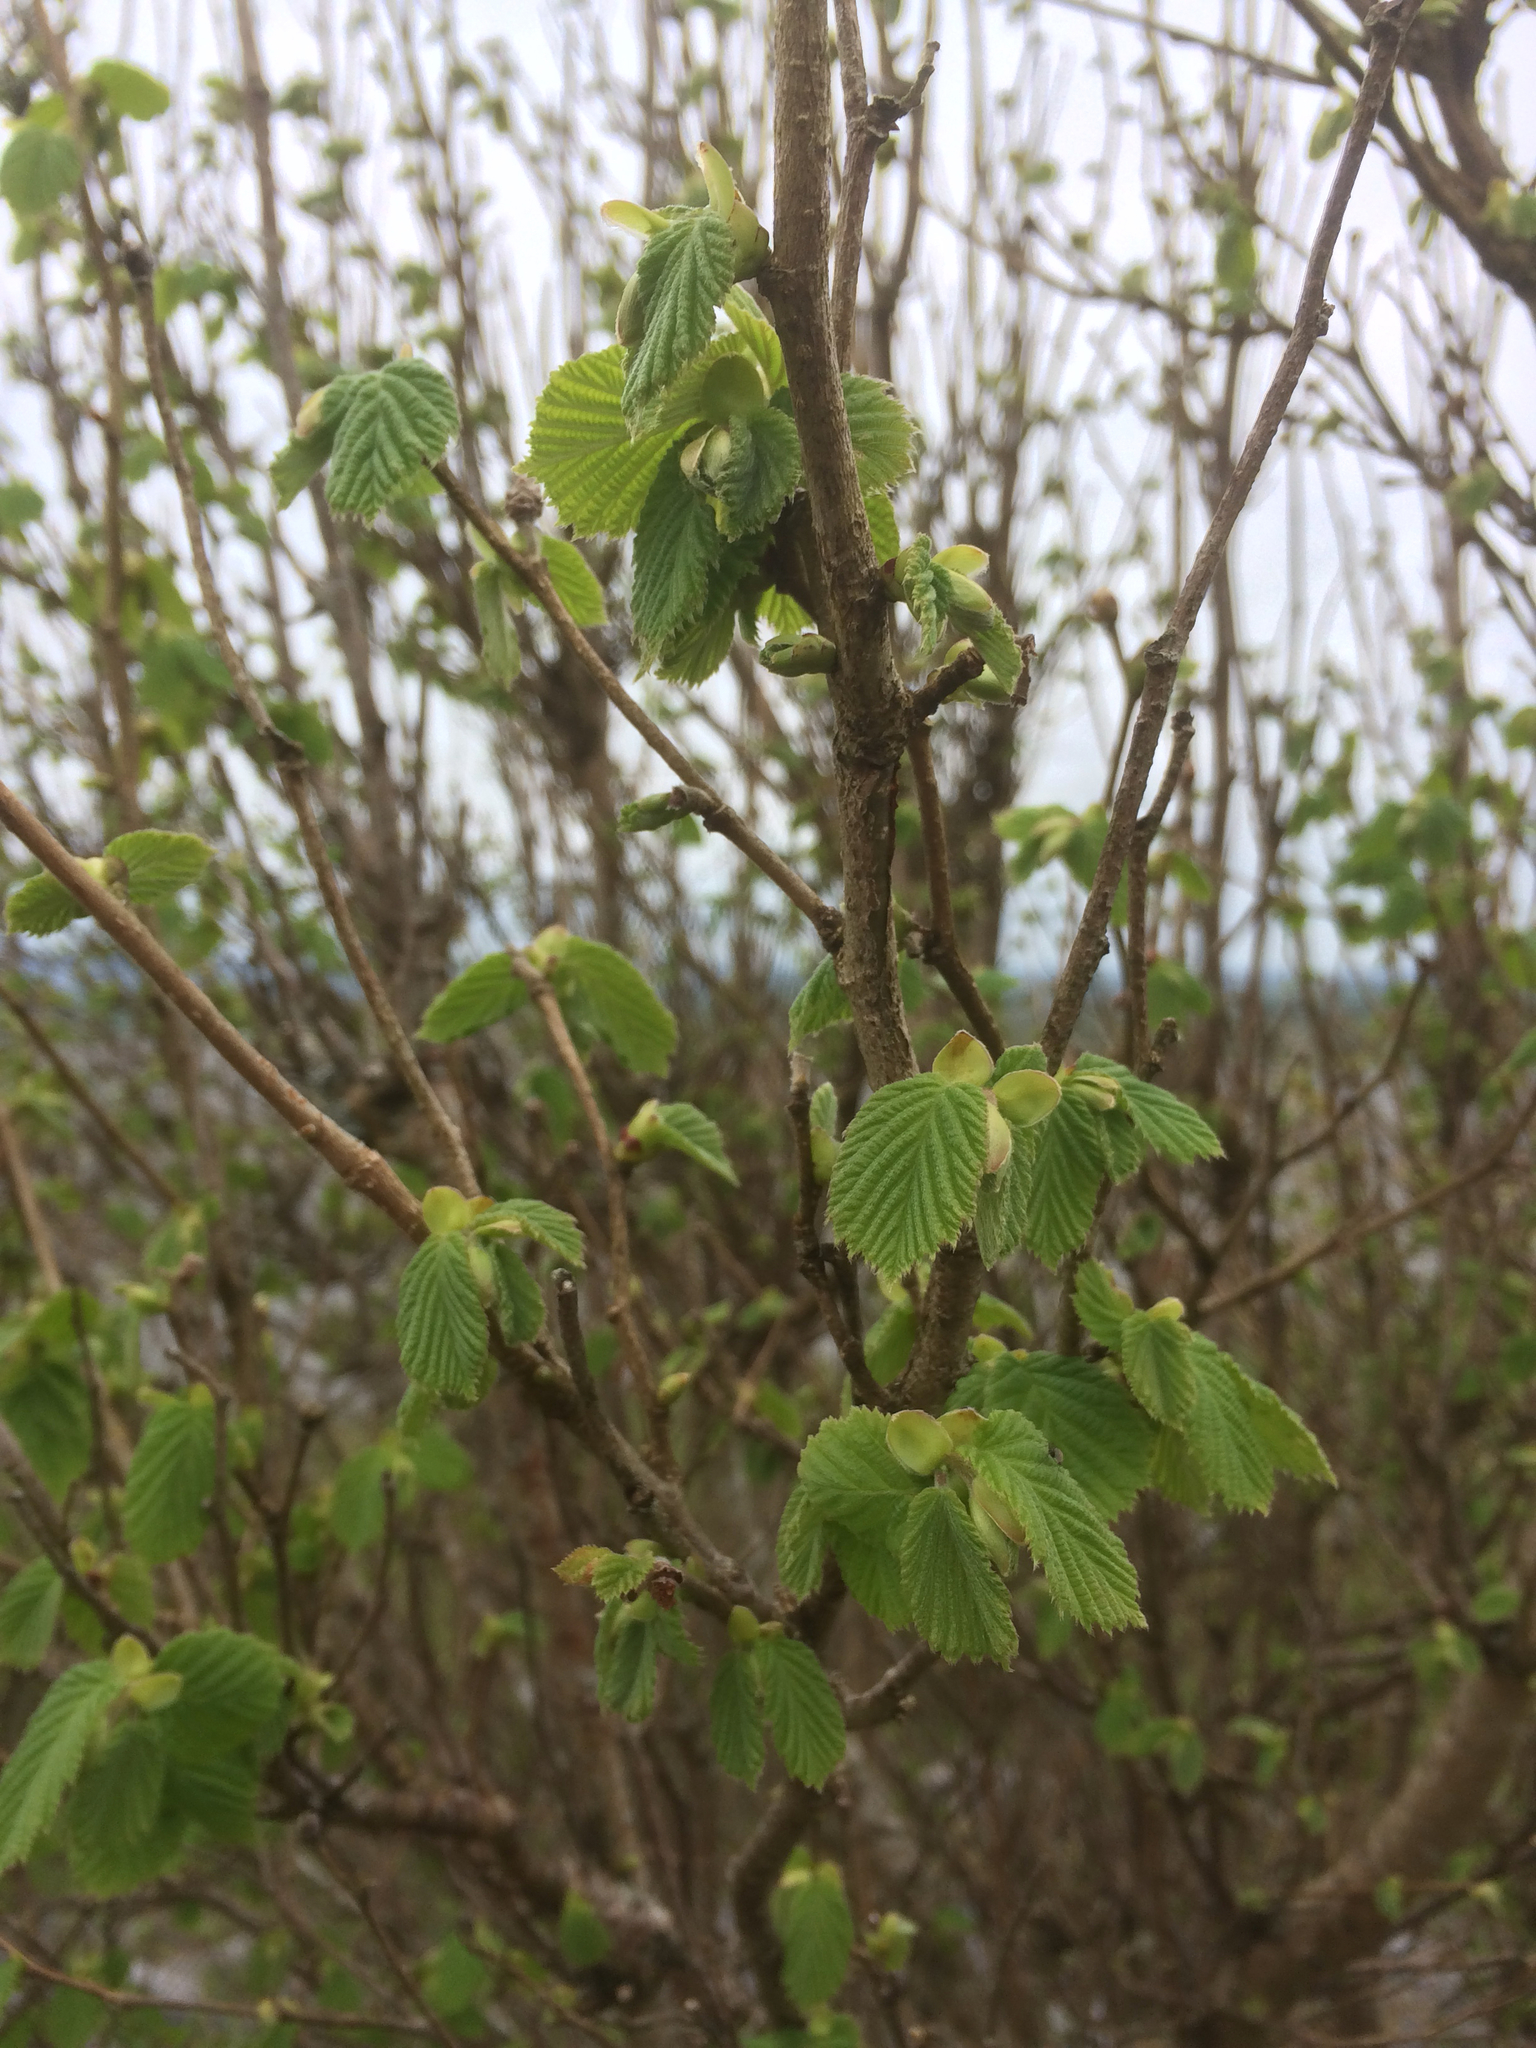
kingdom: Plantae
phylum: Tracheophyta
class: Magnoliopsida
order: Fagales
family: Betulaceae
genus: Corylus
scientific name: Corylus avellana
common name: European hazel
